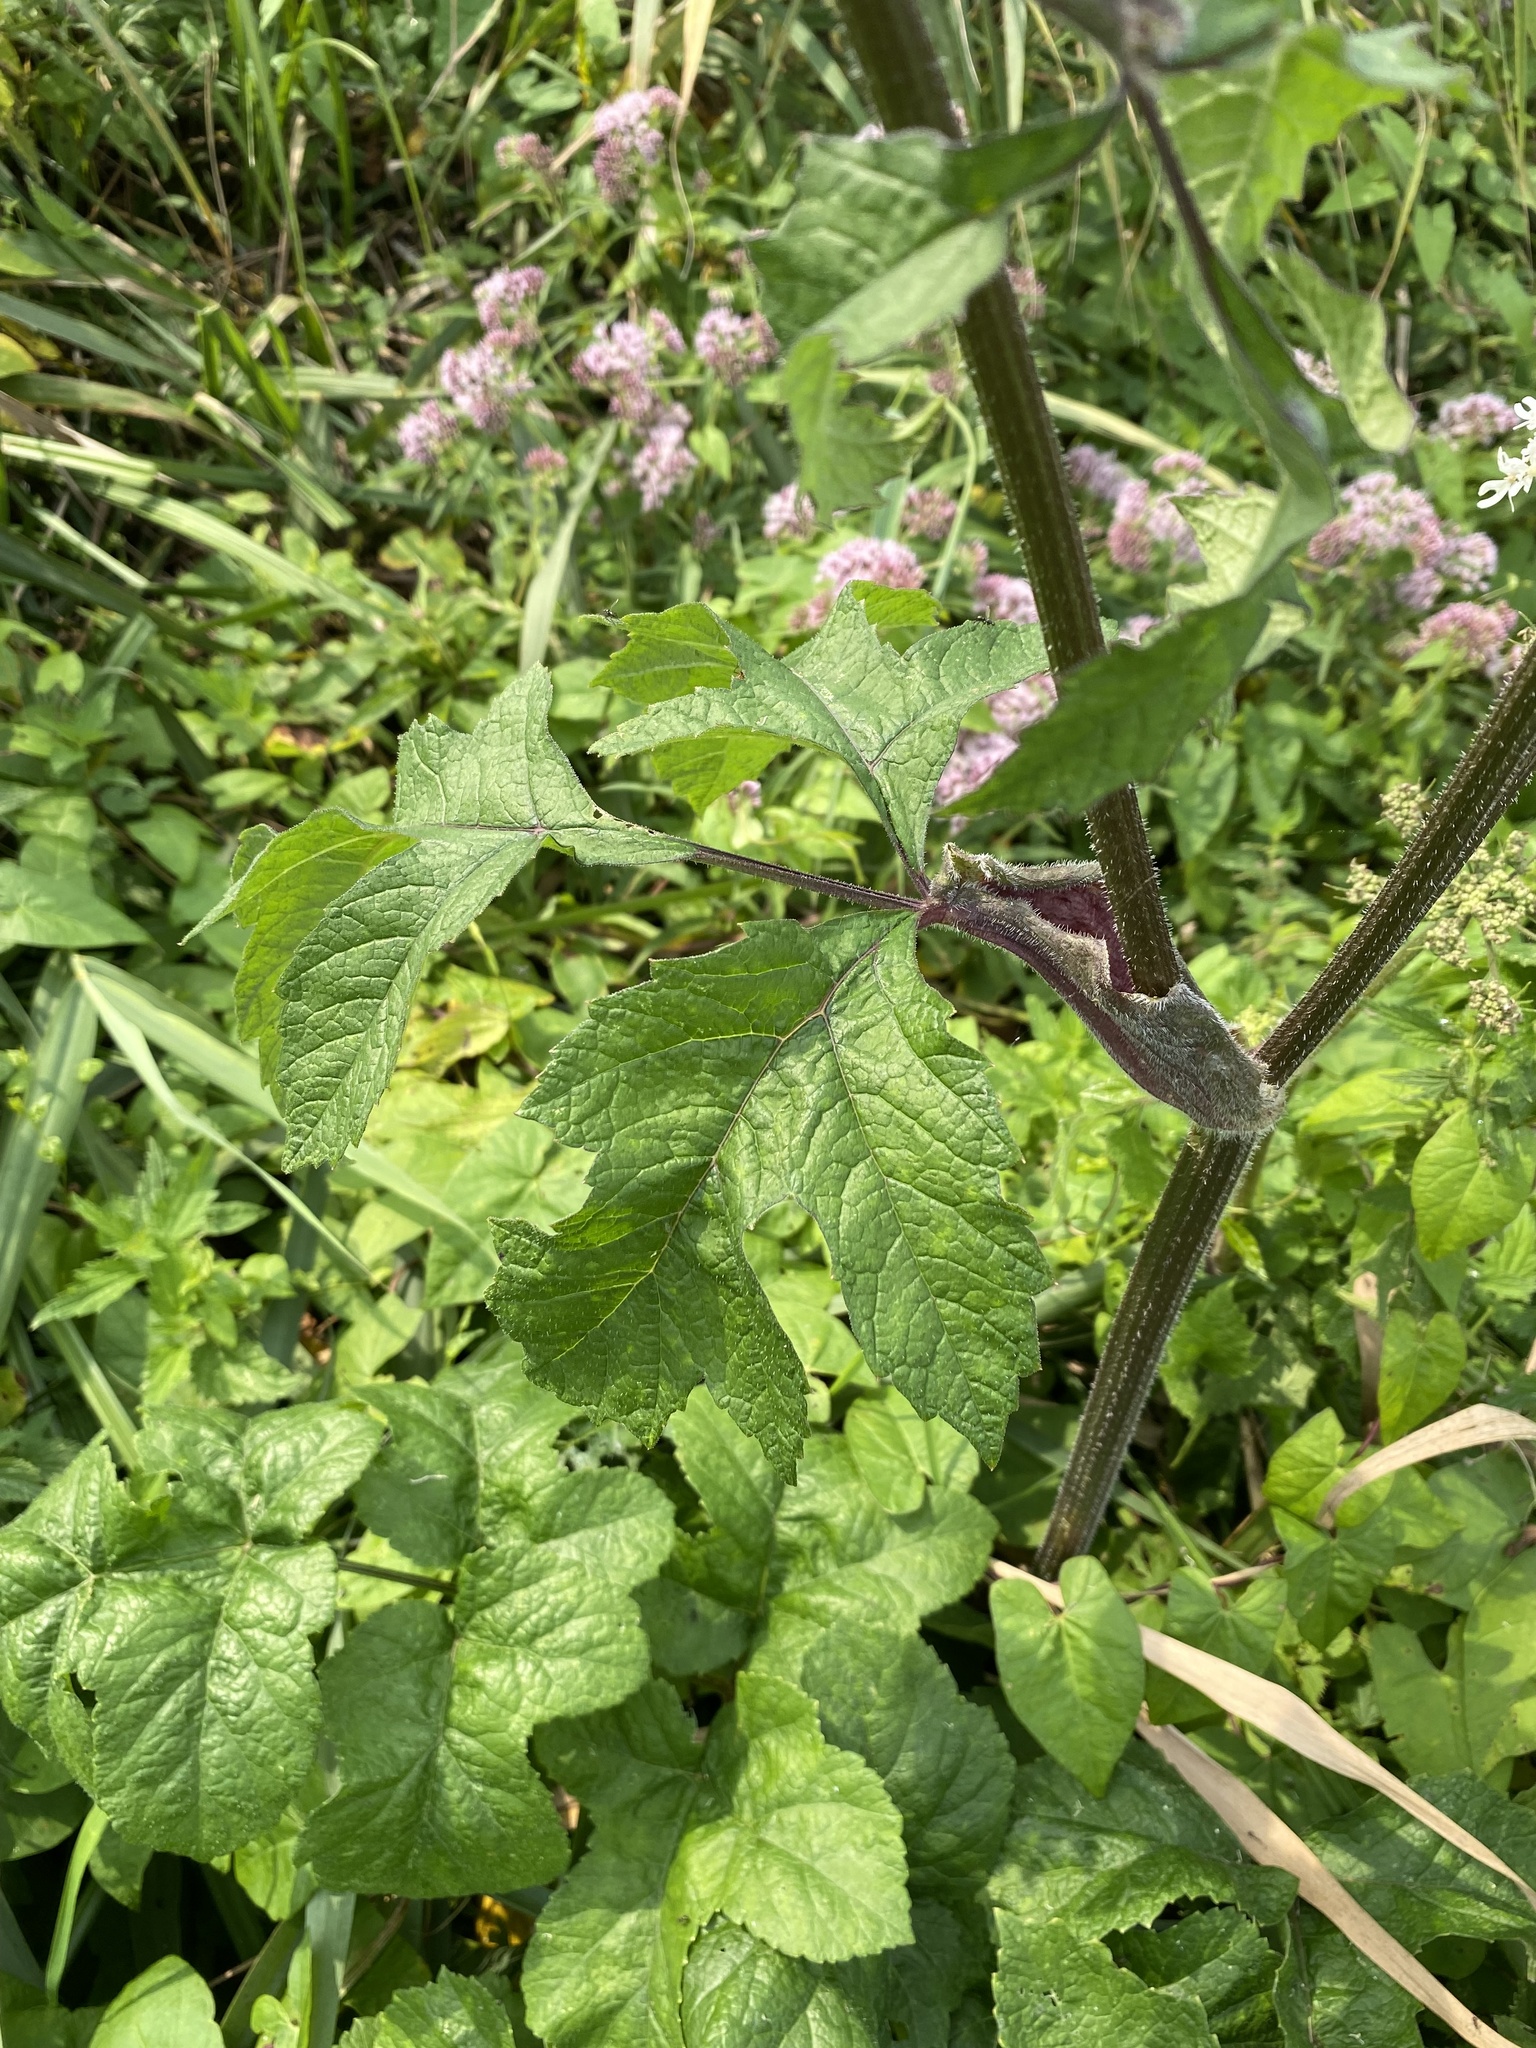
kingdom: Plantae
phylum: Tracheophyta
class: Magnoliopsida
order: Apiales
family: Apiaceae
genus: Heracleum
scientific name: Heracleum sphondylium
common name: Hogweed
